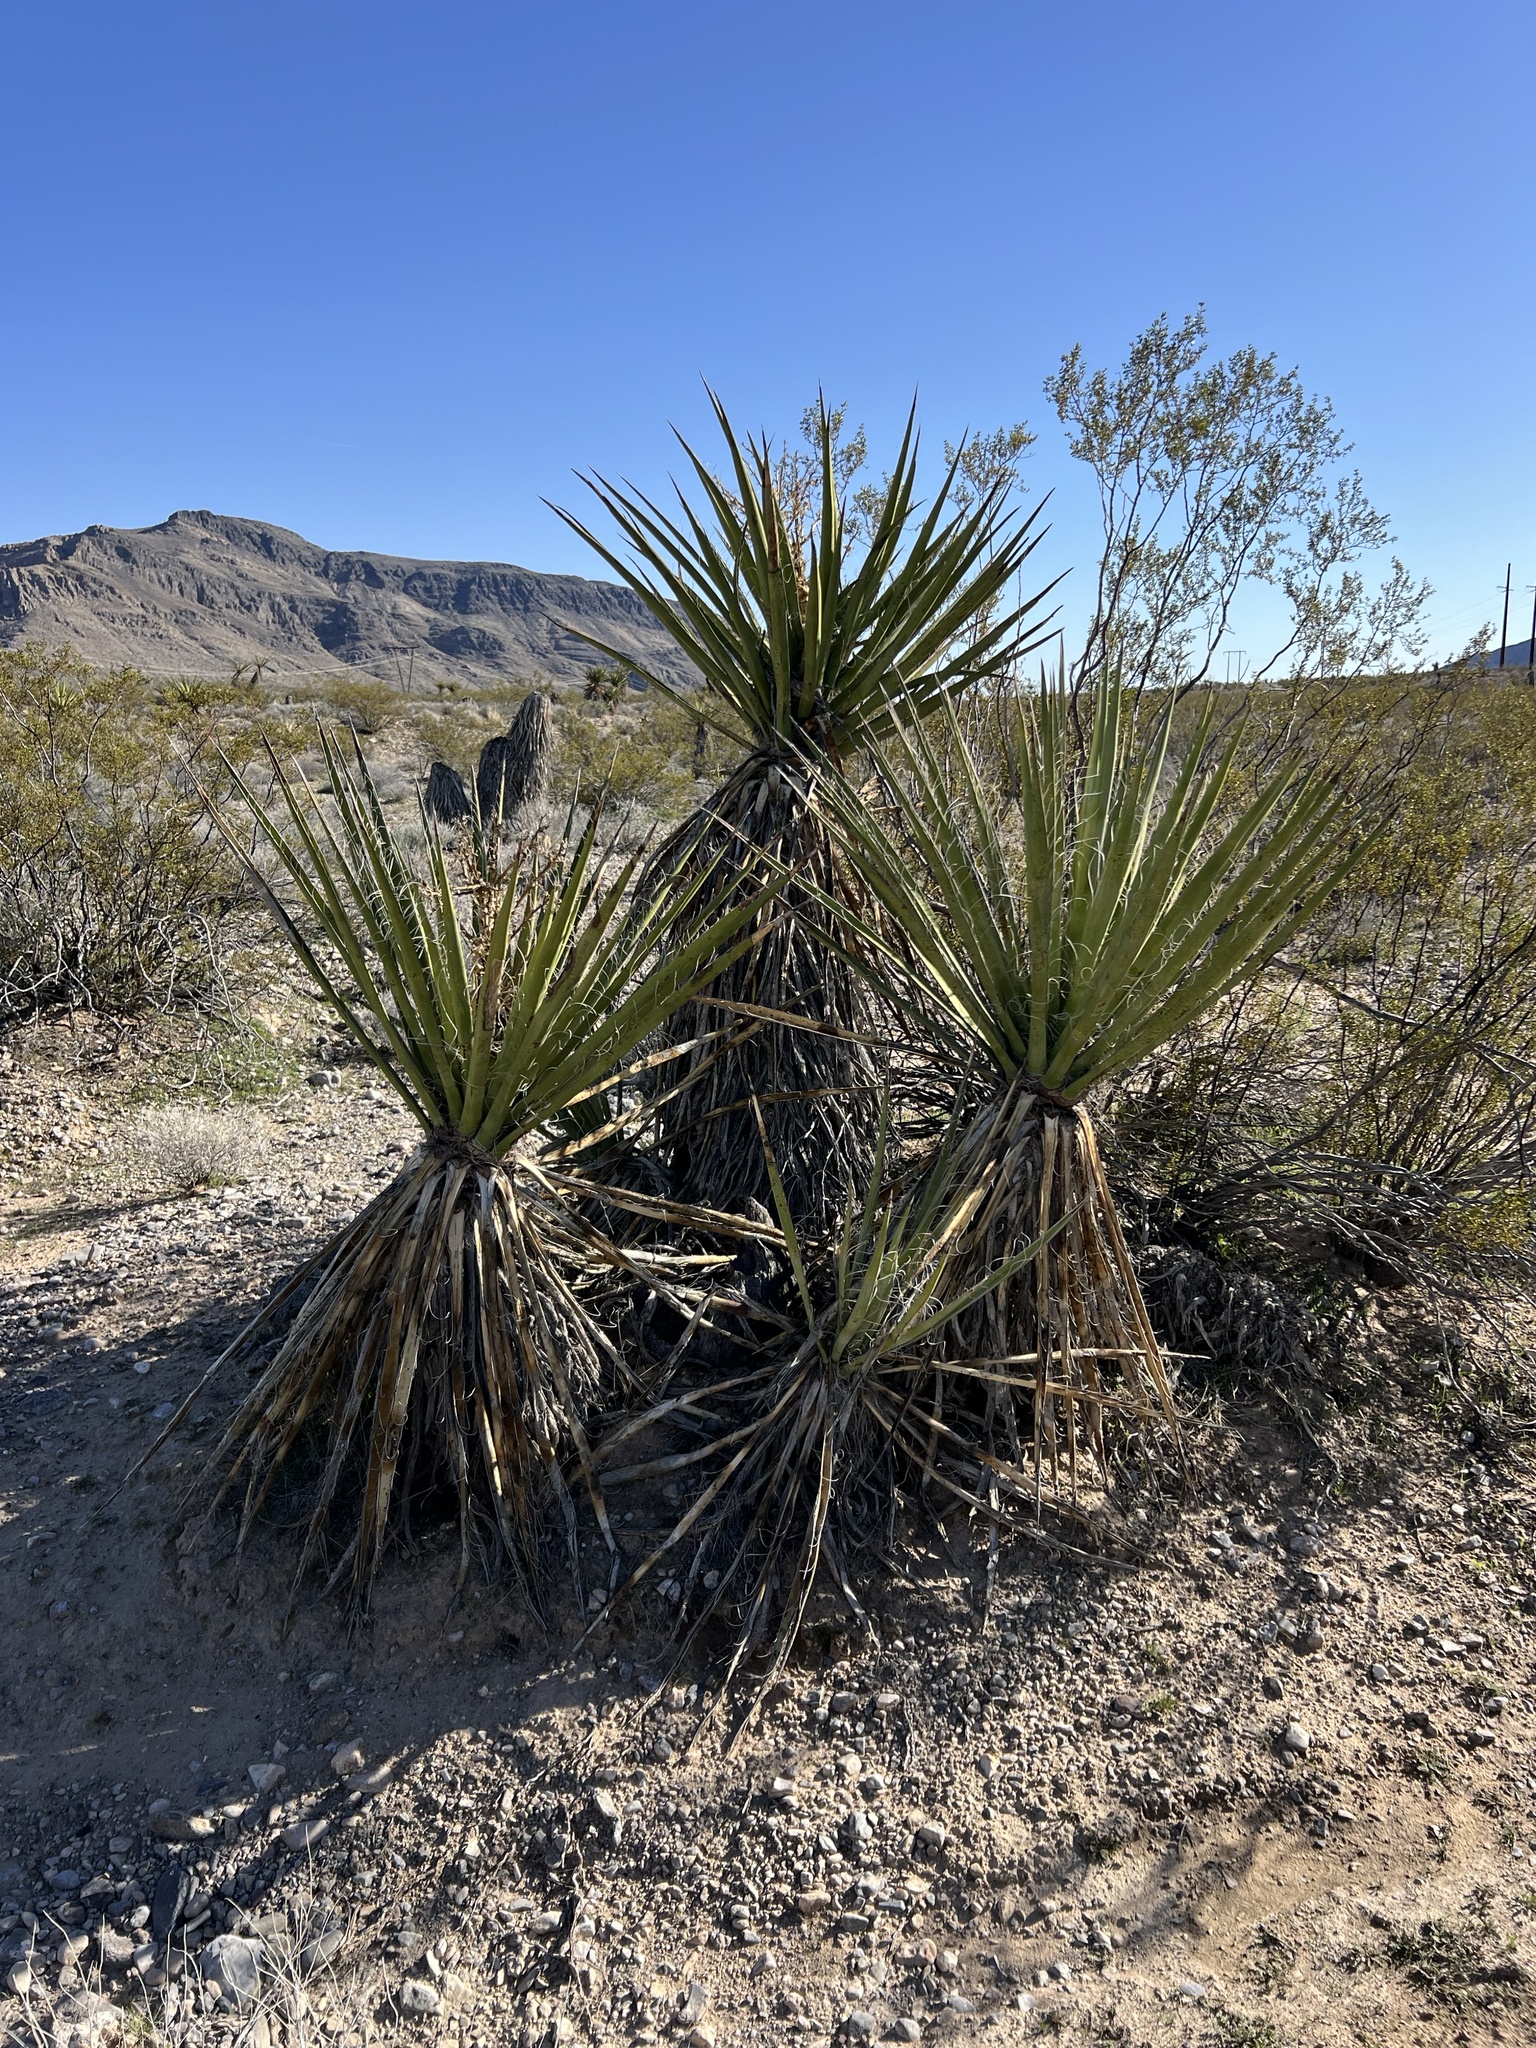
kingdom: Plantae
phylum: Tracheophyta
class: Liliopsida
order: Asparagales
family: Asparagaceae
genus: Yucca
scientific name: Yucca schidigera
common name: Mojave yucca
